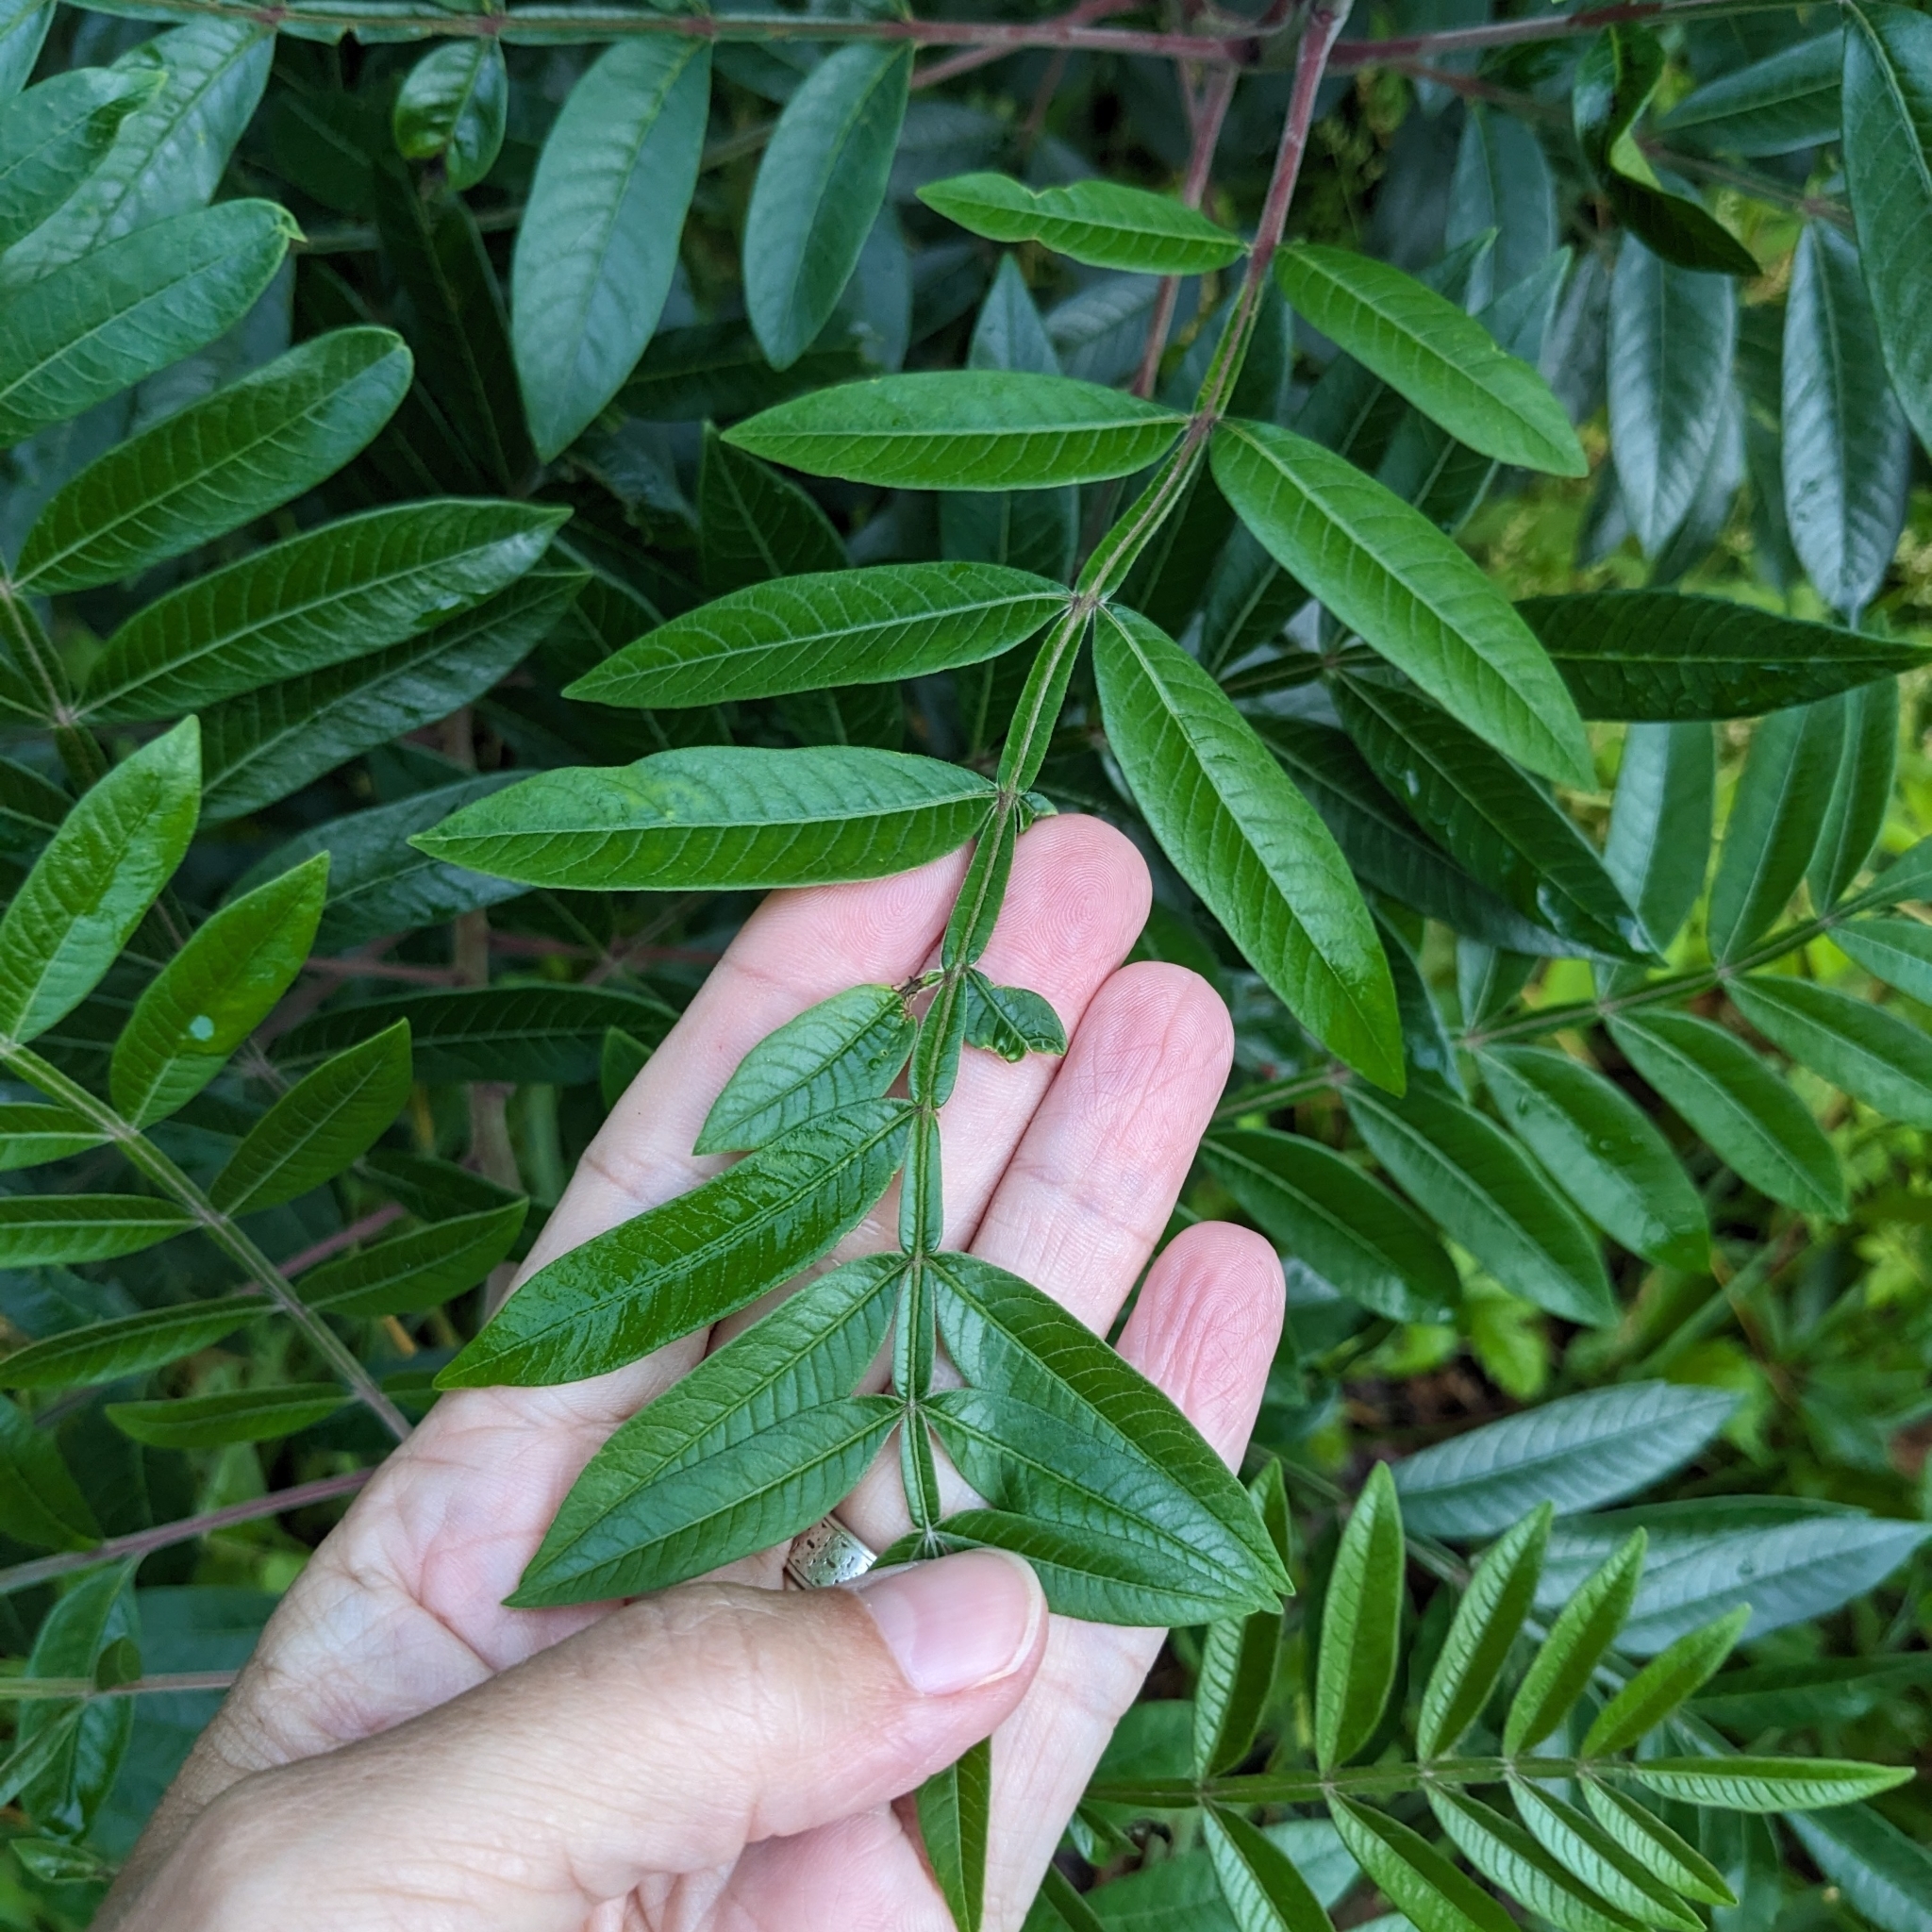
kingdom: Plantae
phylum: Tracheophyta
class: Magnoliopsida
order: Sapindales
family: Anacardiaceae
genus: Rhus
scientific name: Rhus copallina
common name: Shining sumac
